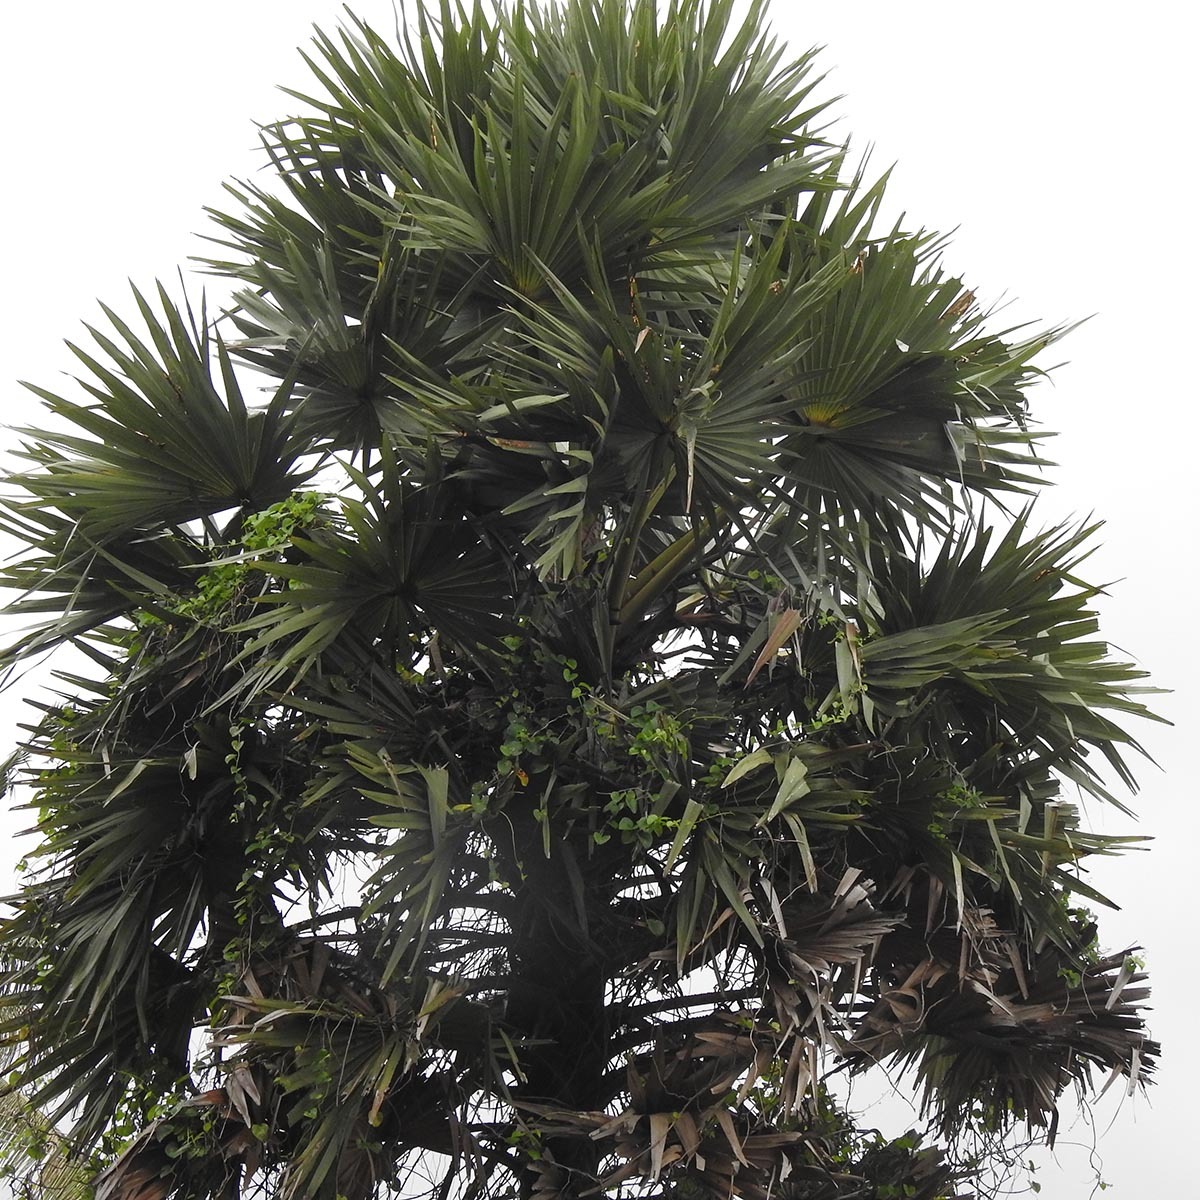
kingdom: Plantae
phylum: Tracheophyta
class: Liliopsida
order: Arecales
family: Arecaceae
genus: Borassus
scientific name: Borassus flabellifer
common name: Palmyra palm
